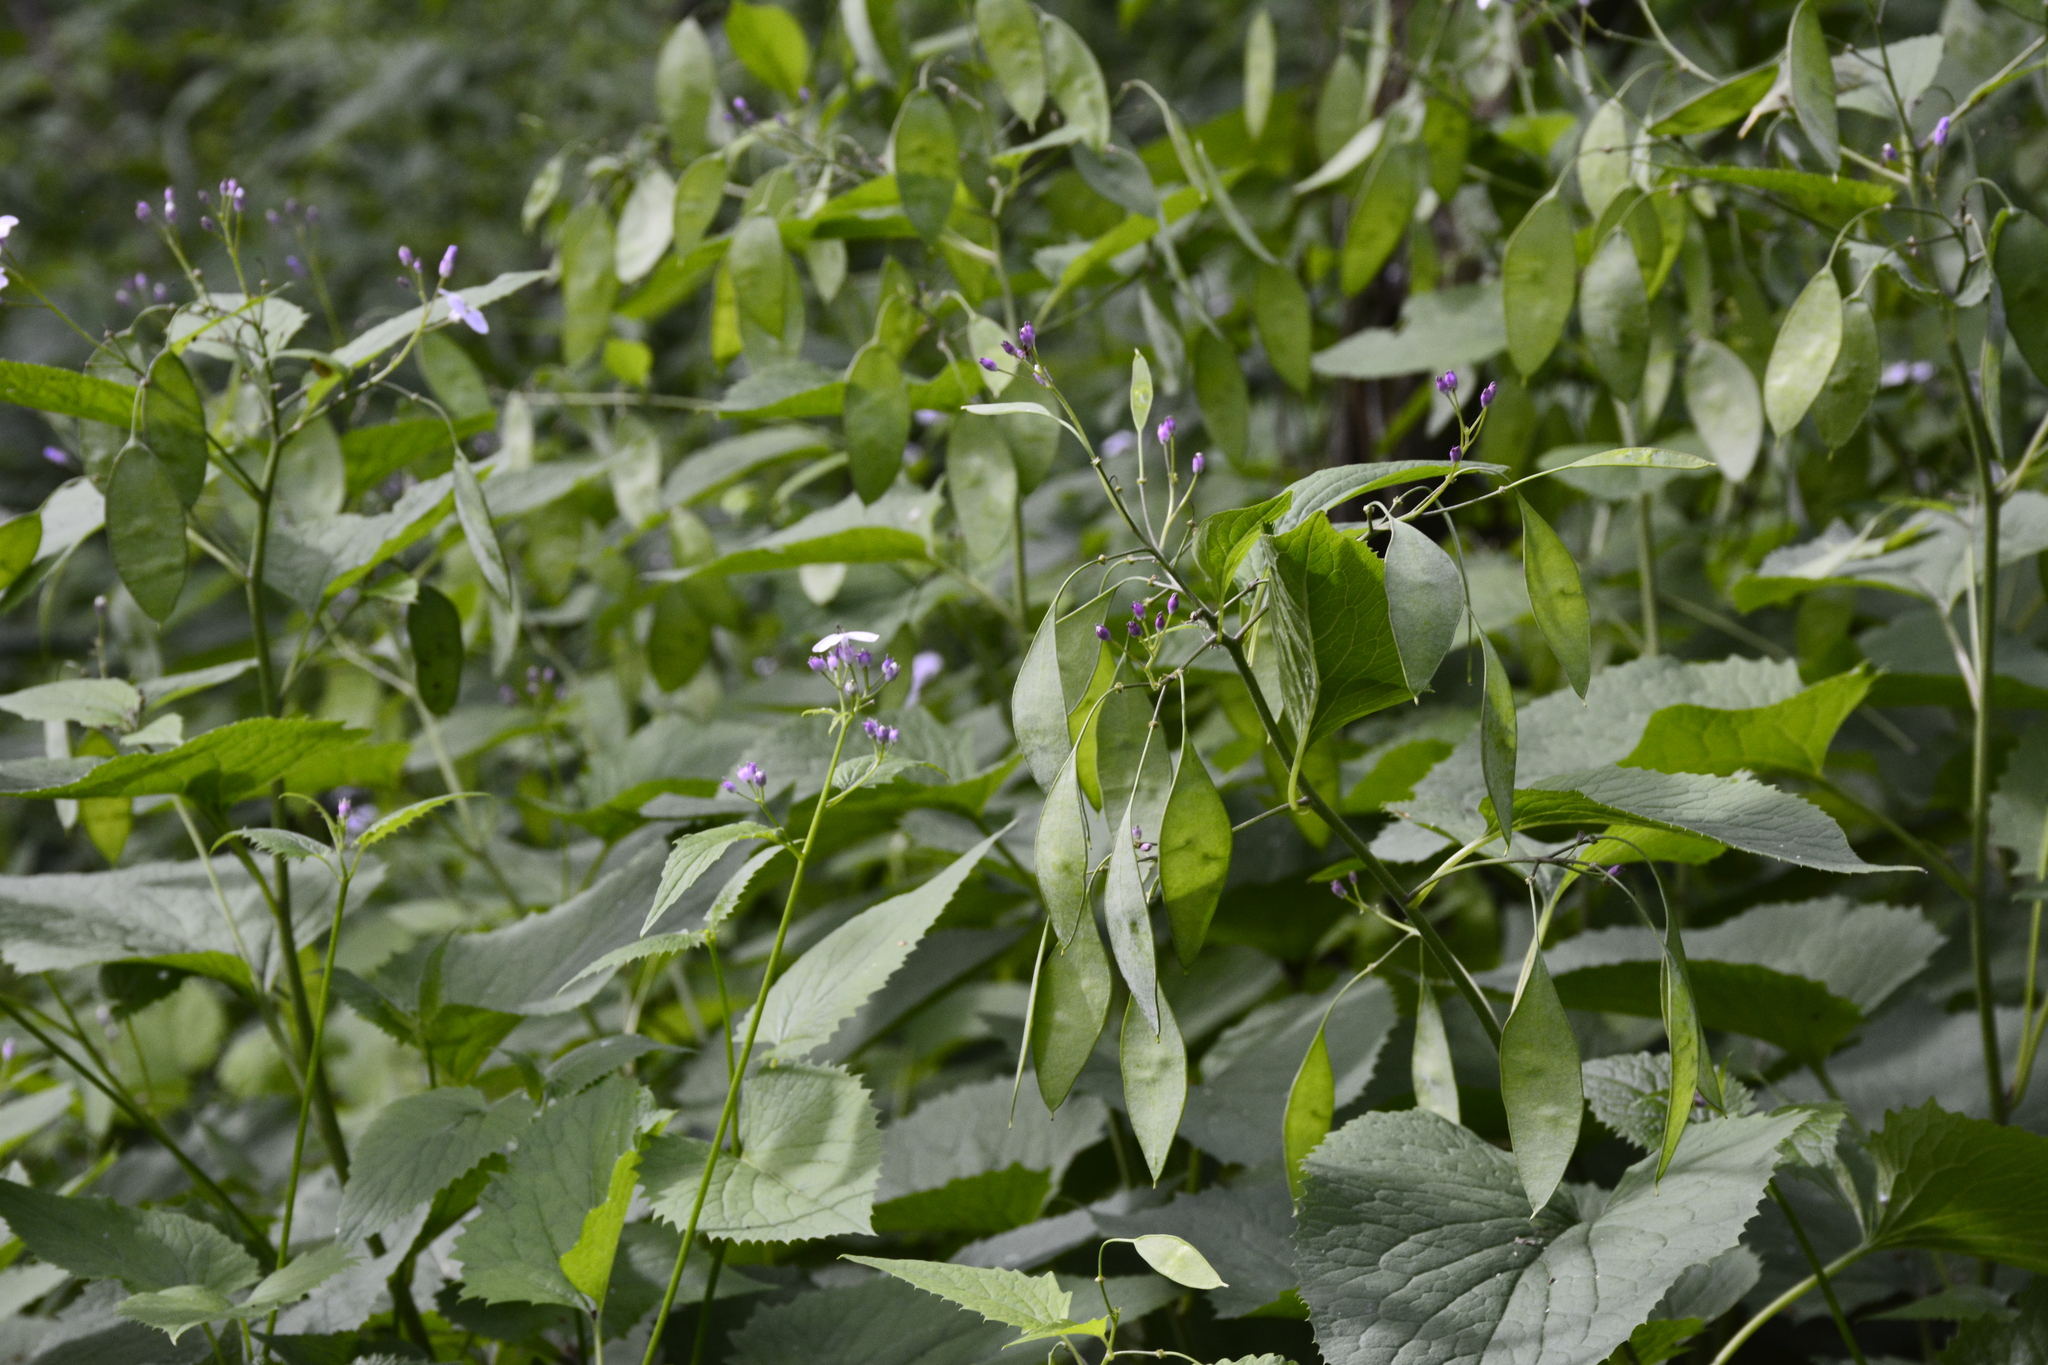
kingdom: Plantae
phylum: Tracheophyta
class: Magnoliopsida
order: Brassicales
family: Brassicaceae
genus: Lunaria
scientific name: Lunaria rediviva
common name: Perennial honesty
